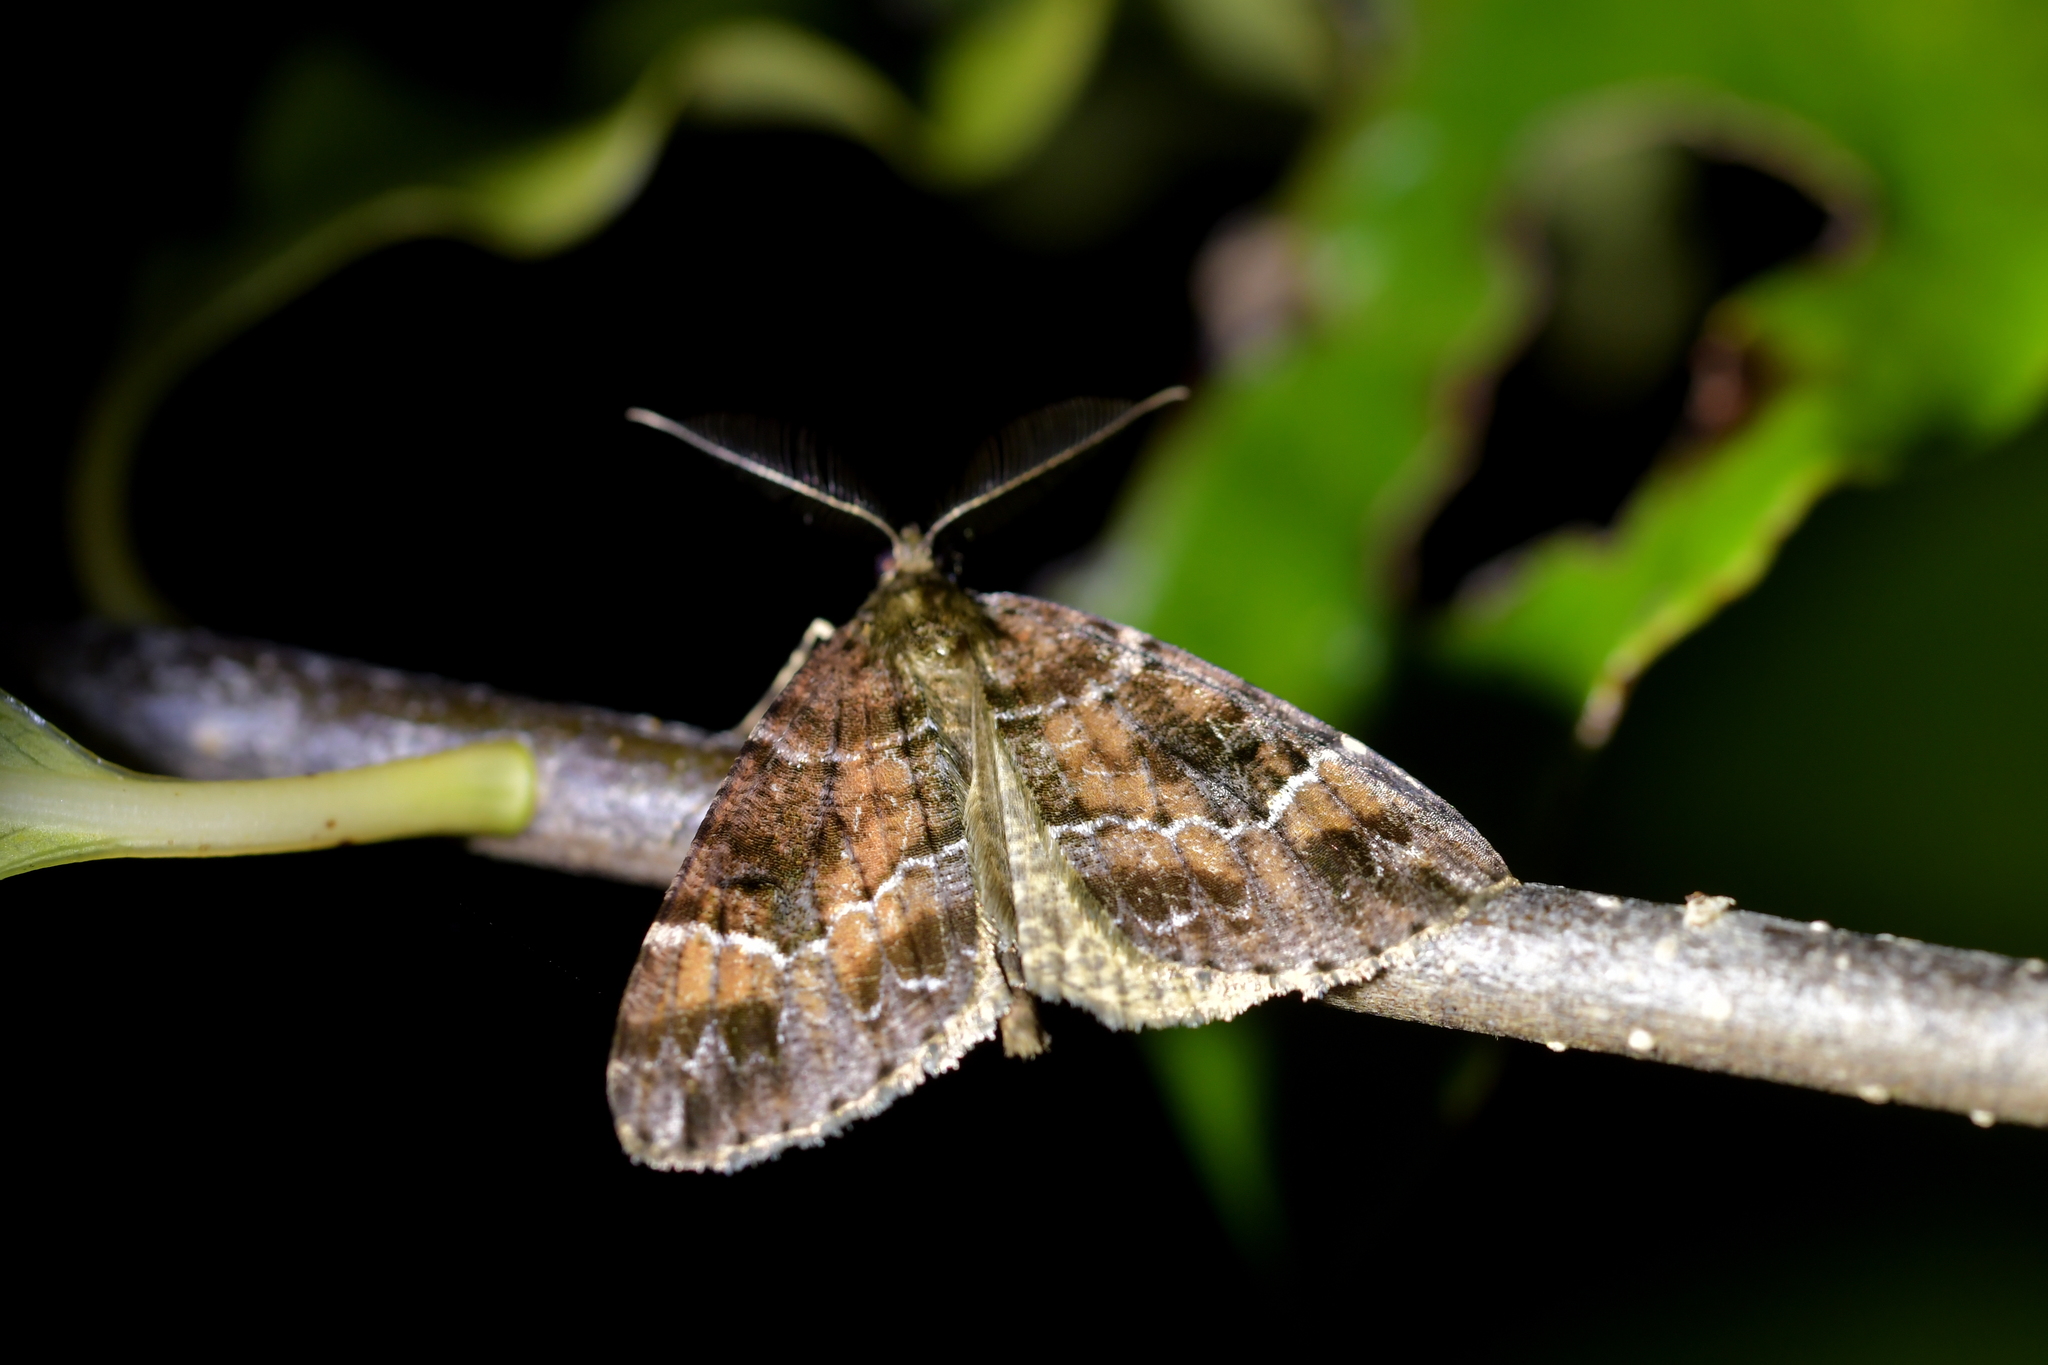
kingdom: Animalia
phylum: Arthropoda
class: Insecta
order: Lepidoptera
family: Geometridae
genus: Pseudocoremia
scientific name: Pseudocoremia productata
